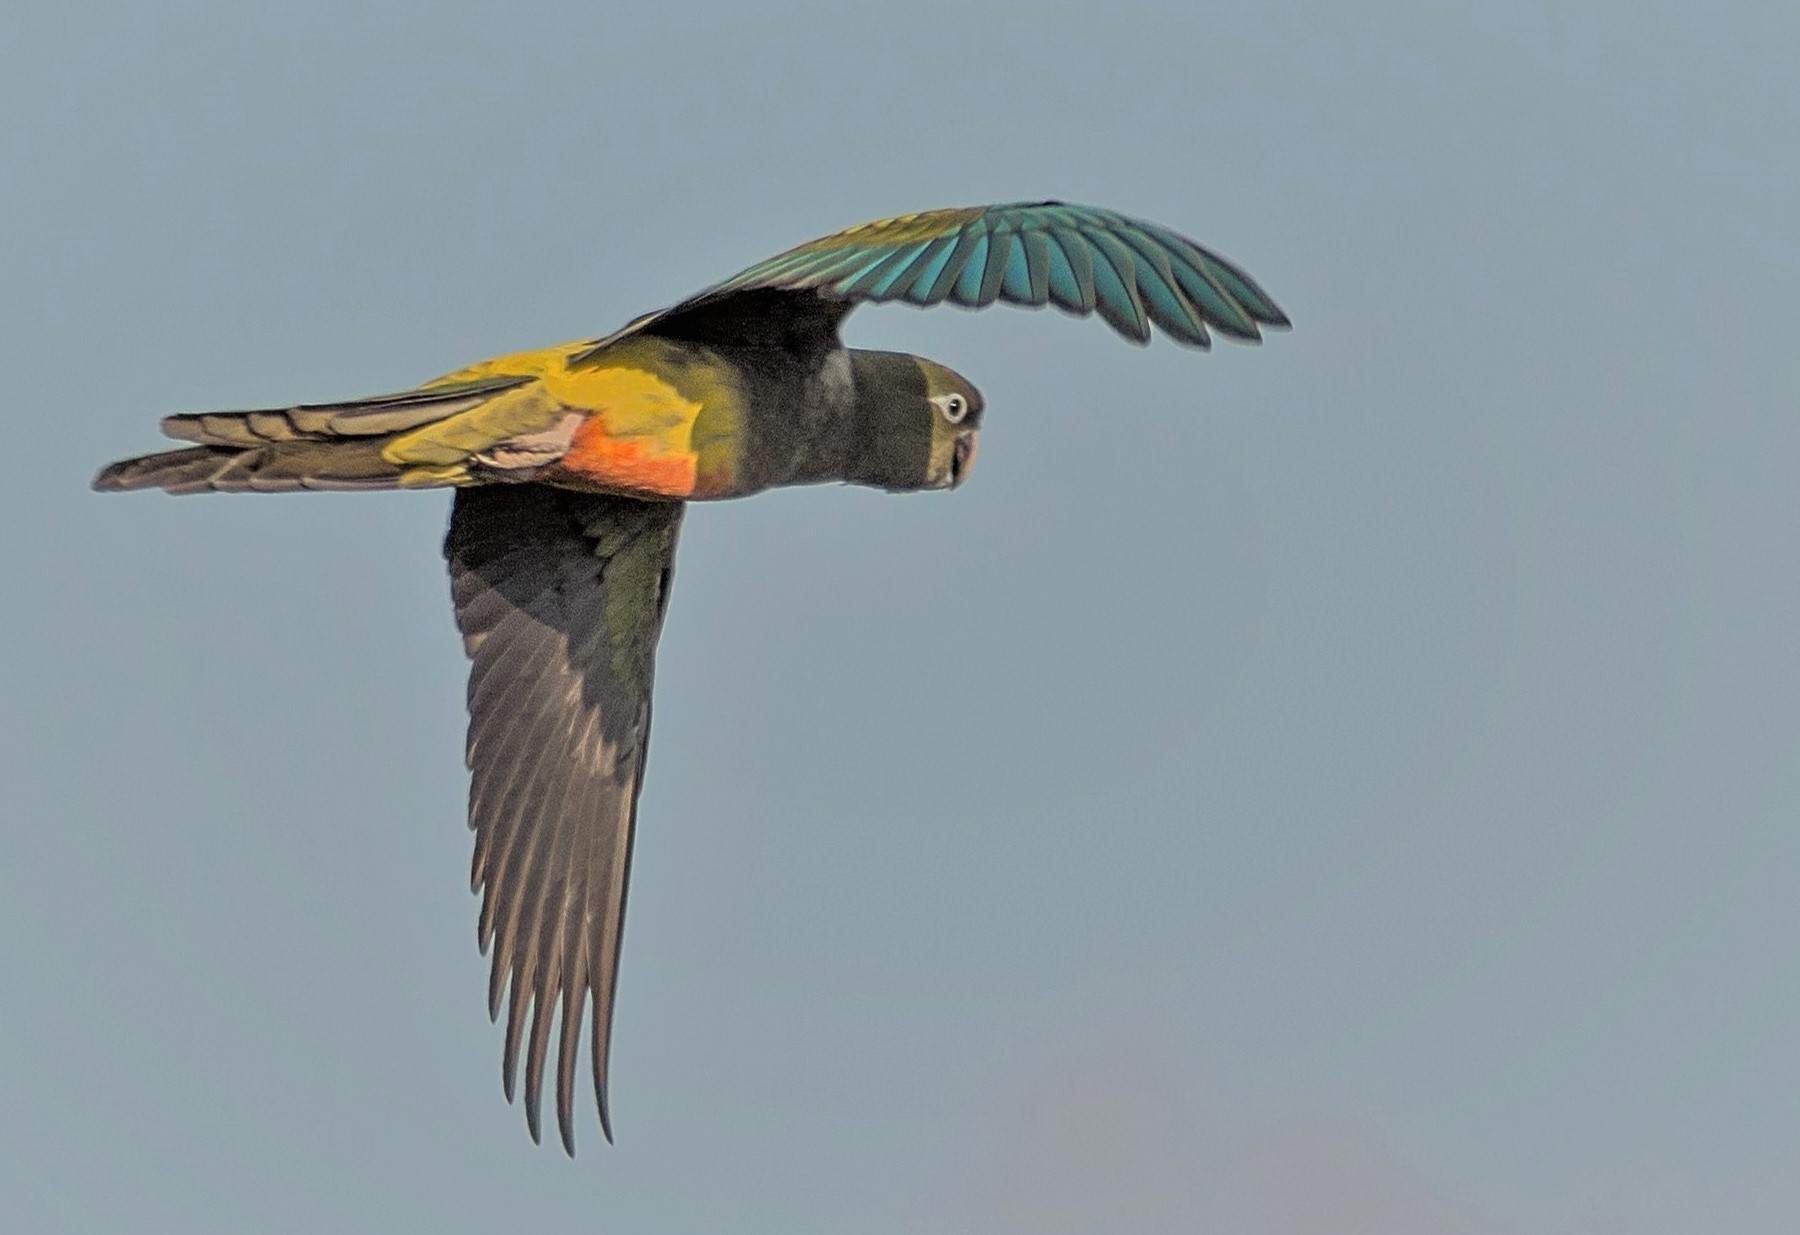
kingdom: Animalia
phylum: Chordata
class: Aves
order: Psittaciformes
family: Psittacidae
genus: Cyanoliseus
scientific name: Cyanoliseus patagonus
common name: Burrowing parrot
